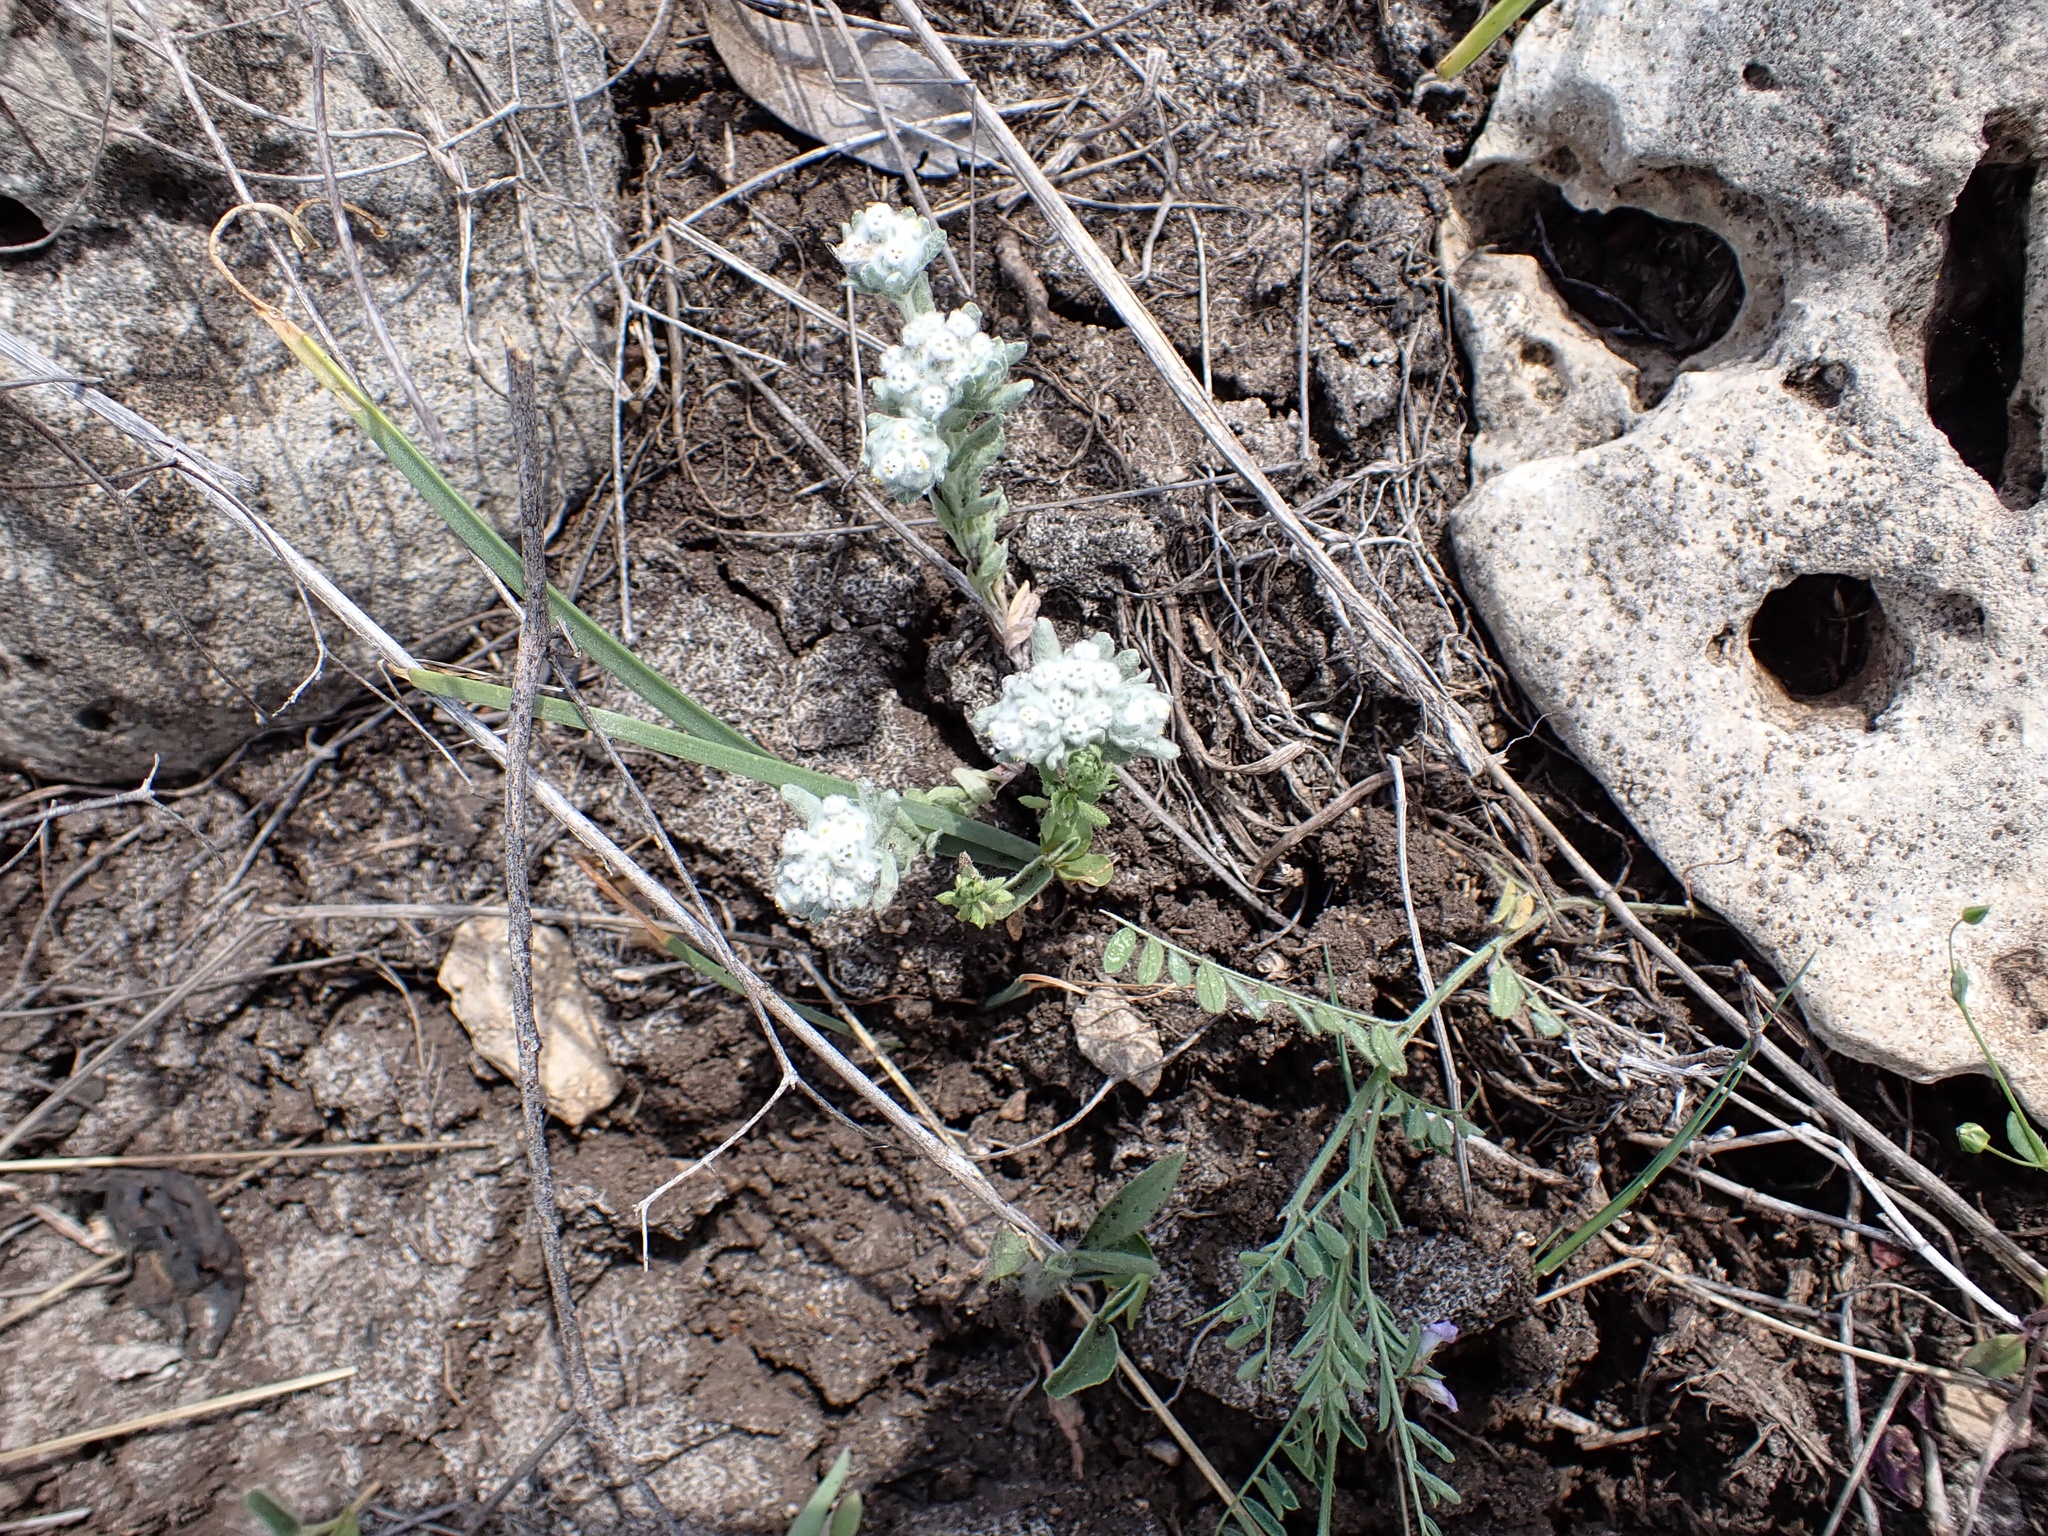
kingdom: Plantae
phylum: Tracheophyta
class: Magnoliopsida
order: Asterales
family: Asteraceae
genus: Diaperia
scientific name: Diaperia verna
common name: Many-stem rabbit-tobacco
